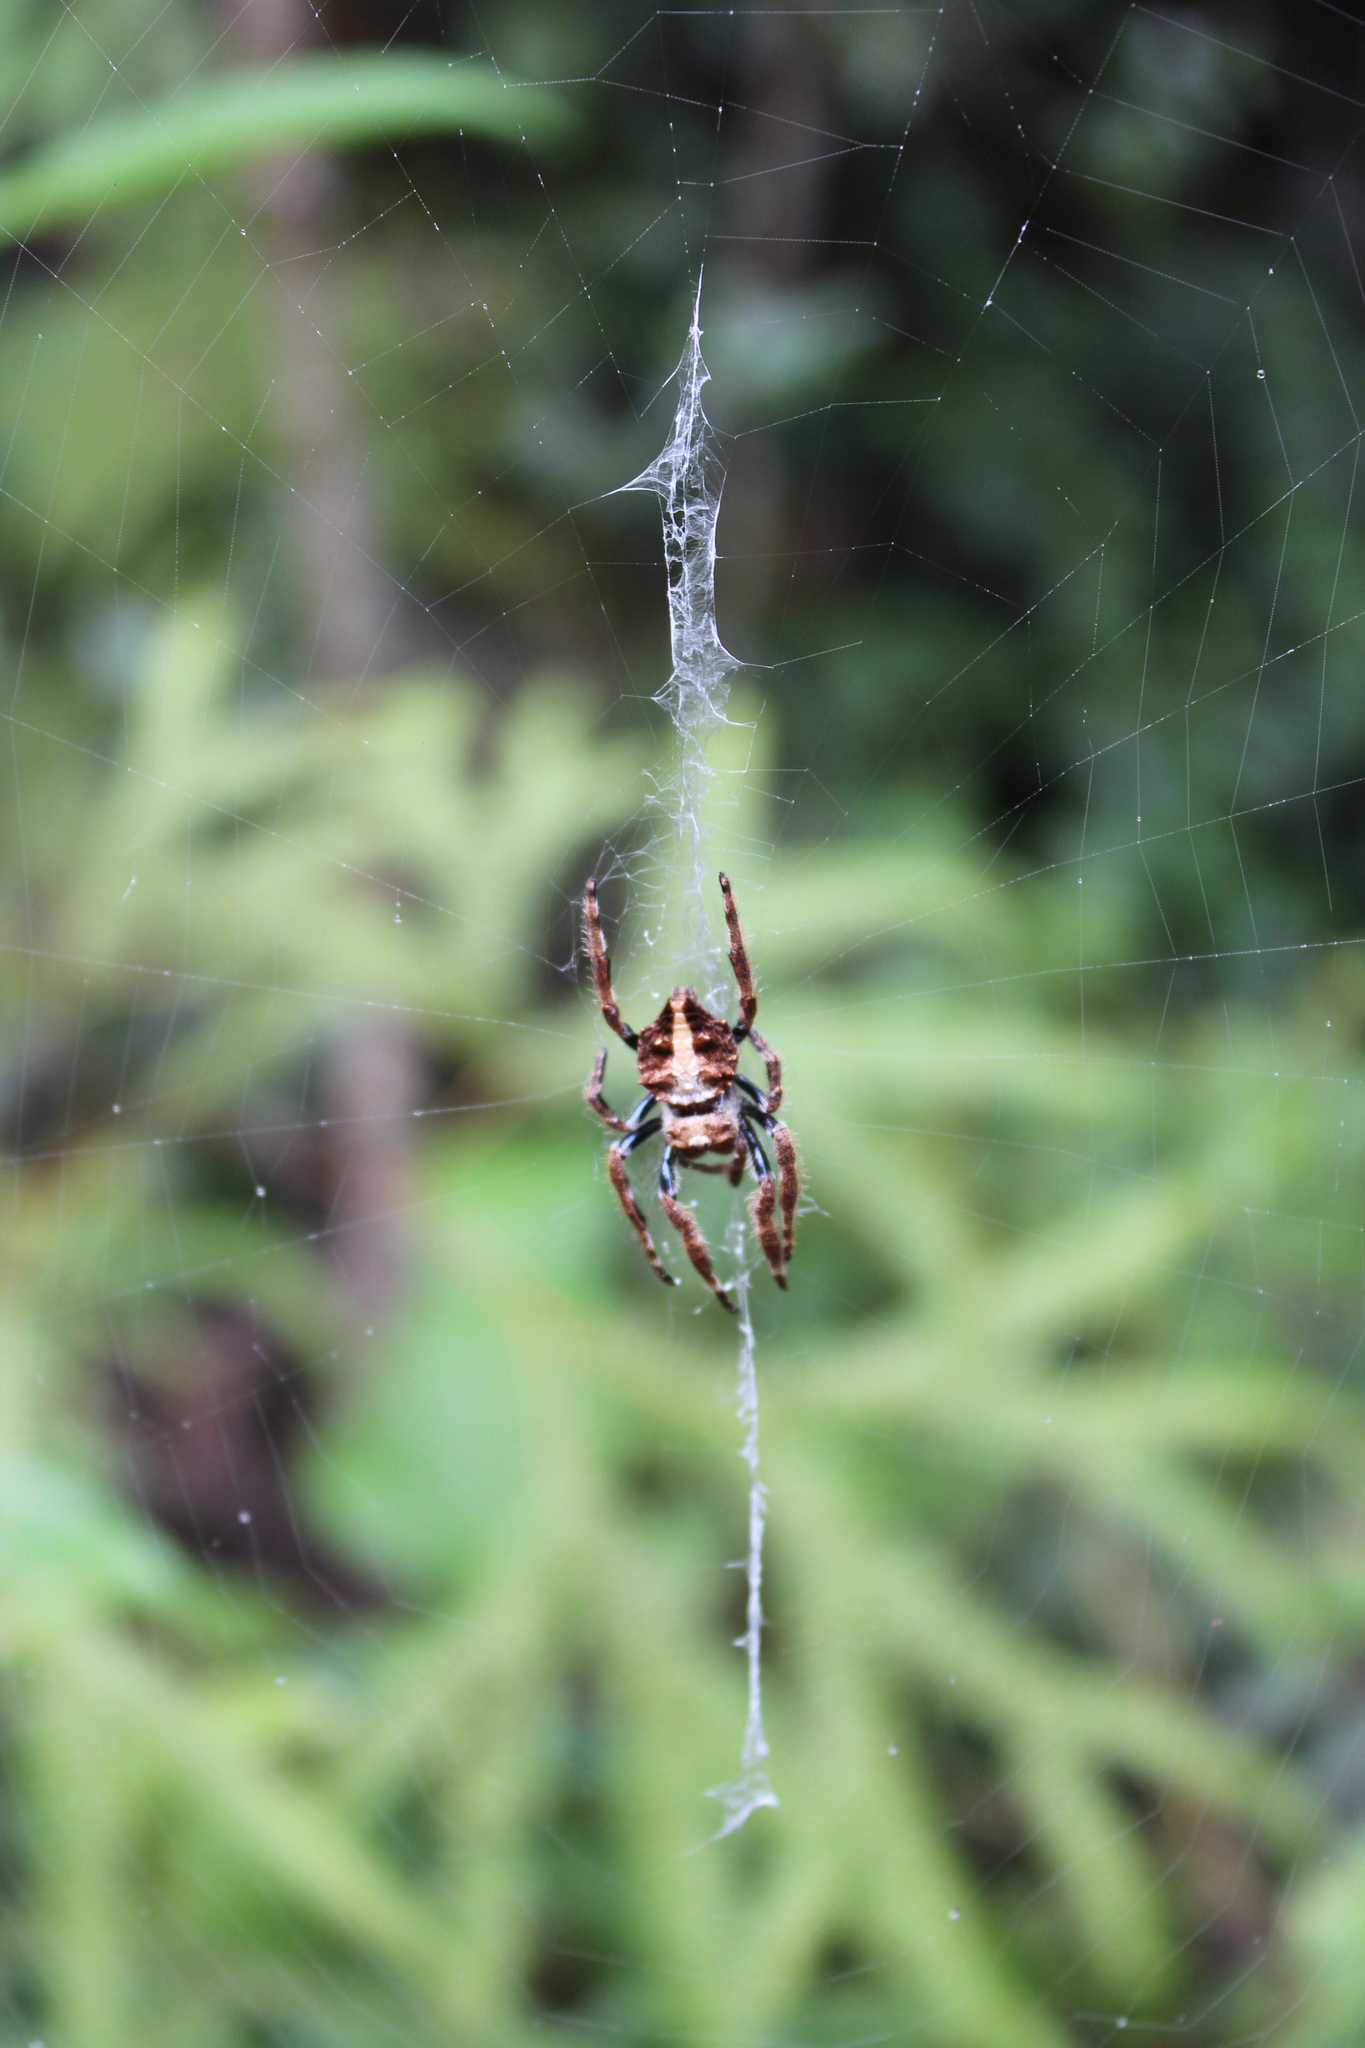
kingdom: Animalia
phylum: Arthropoda
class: Arachnida
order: Araneae
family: Araneidae
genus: Caerostris
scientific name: Caerostris extrusa
